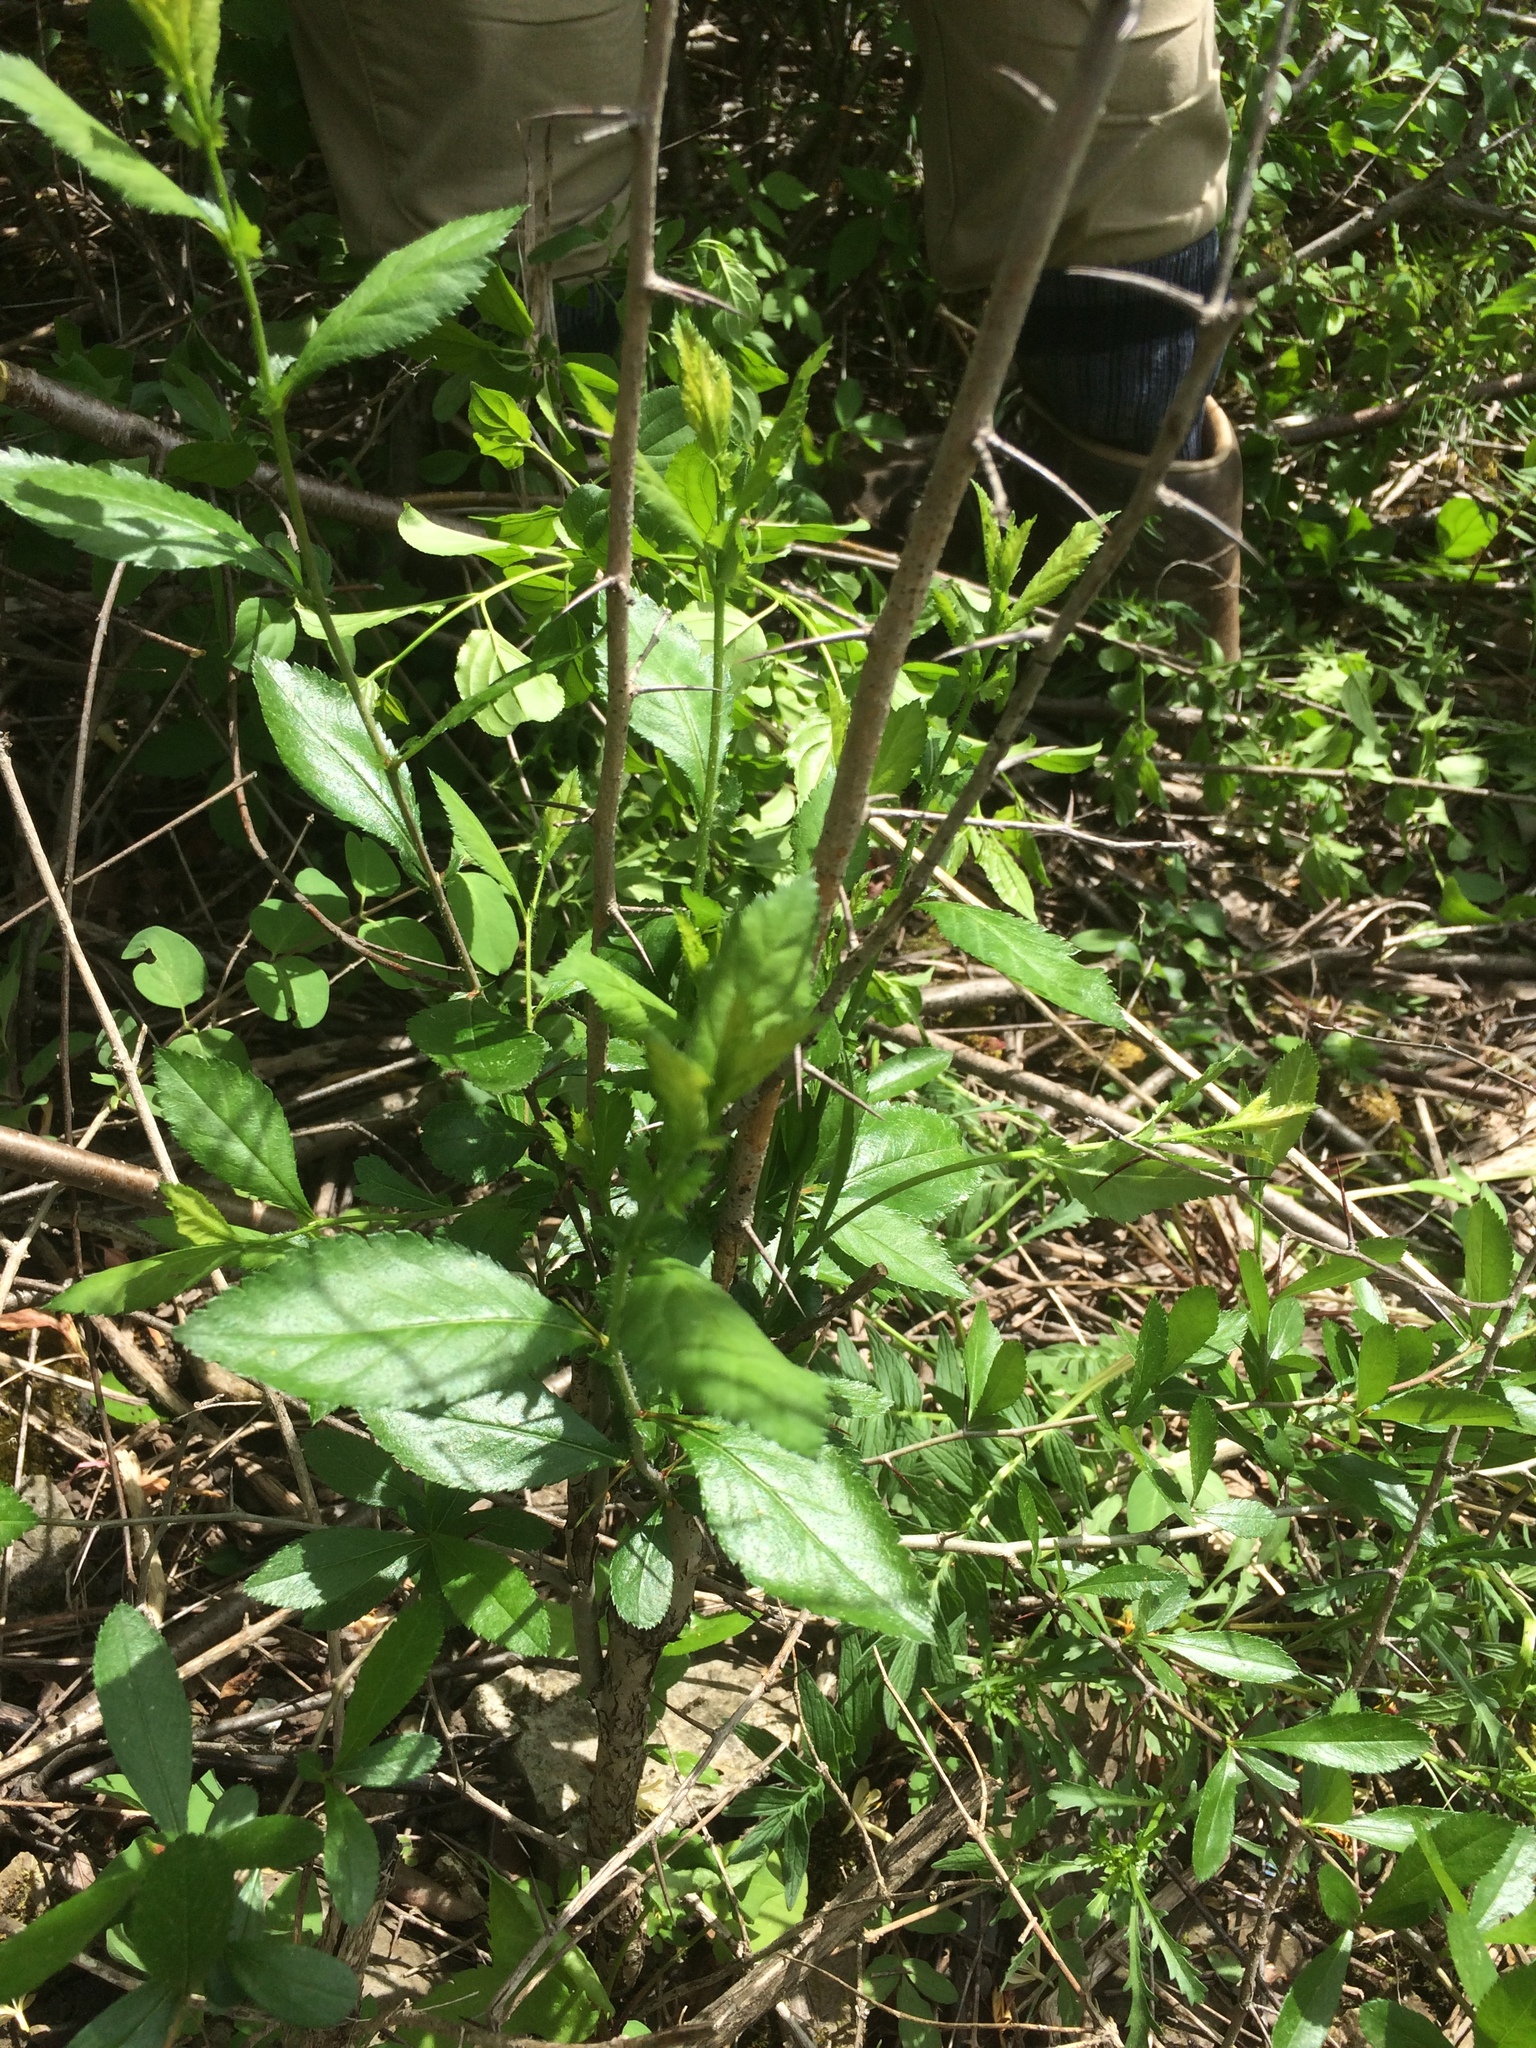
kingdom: Plantae
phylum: Tracheophyta
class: Magnoliopsida
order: Rosales
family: Rosaceae
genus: Crataegus
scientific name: Crataegus crus-galli
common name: Cockspurthorn
